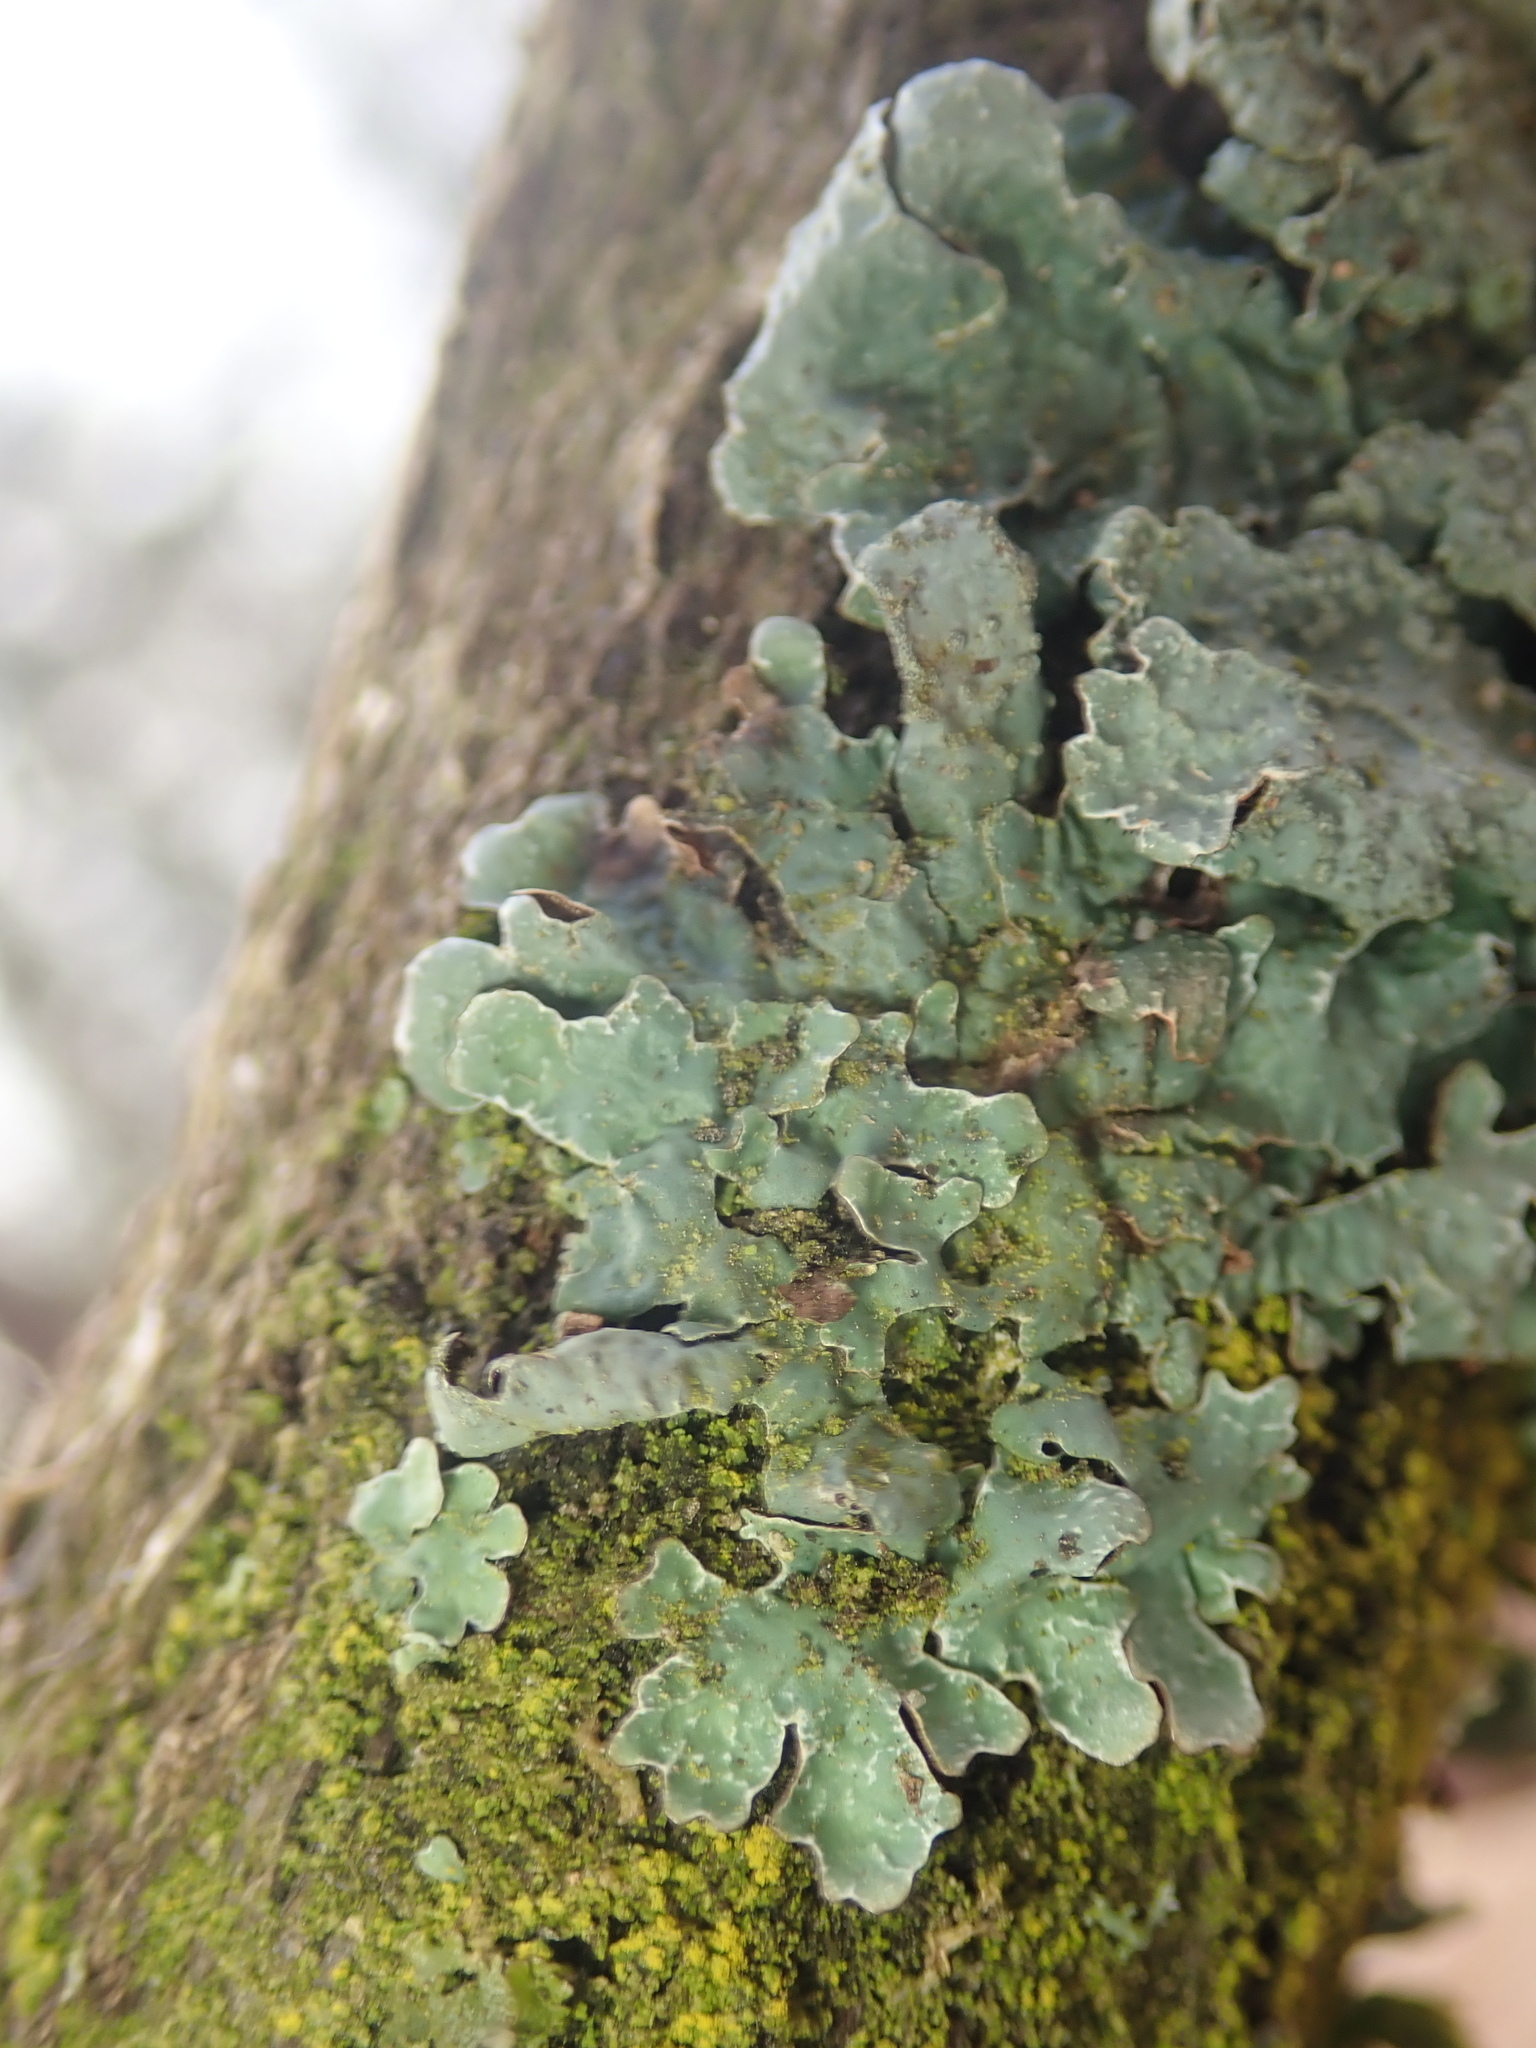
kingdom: Fungi
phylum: Ascomycota
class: Lecanoromycetes
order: Lecanorales
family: Parmeliaceae
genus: Parmelia
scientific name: Parmelia sulcata
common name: Netted shield lichen
